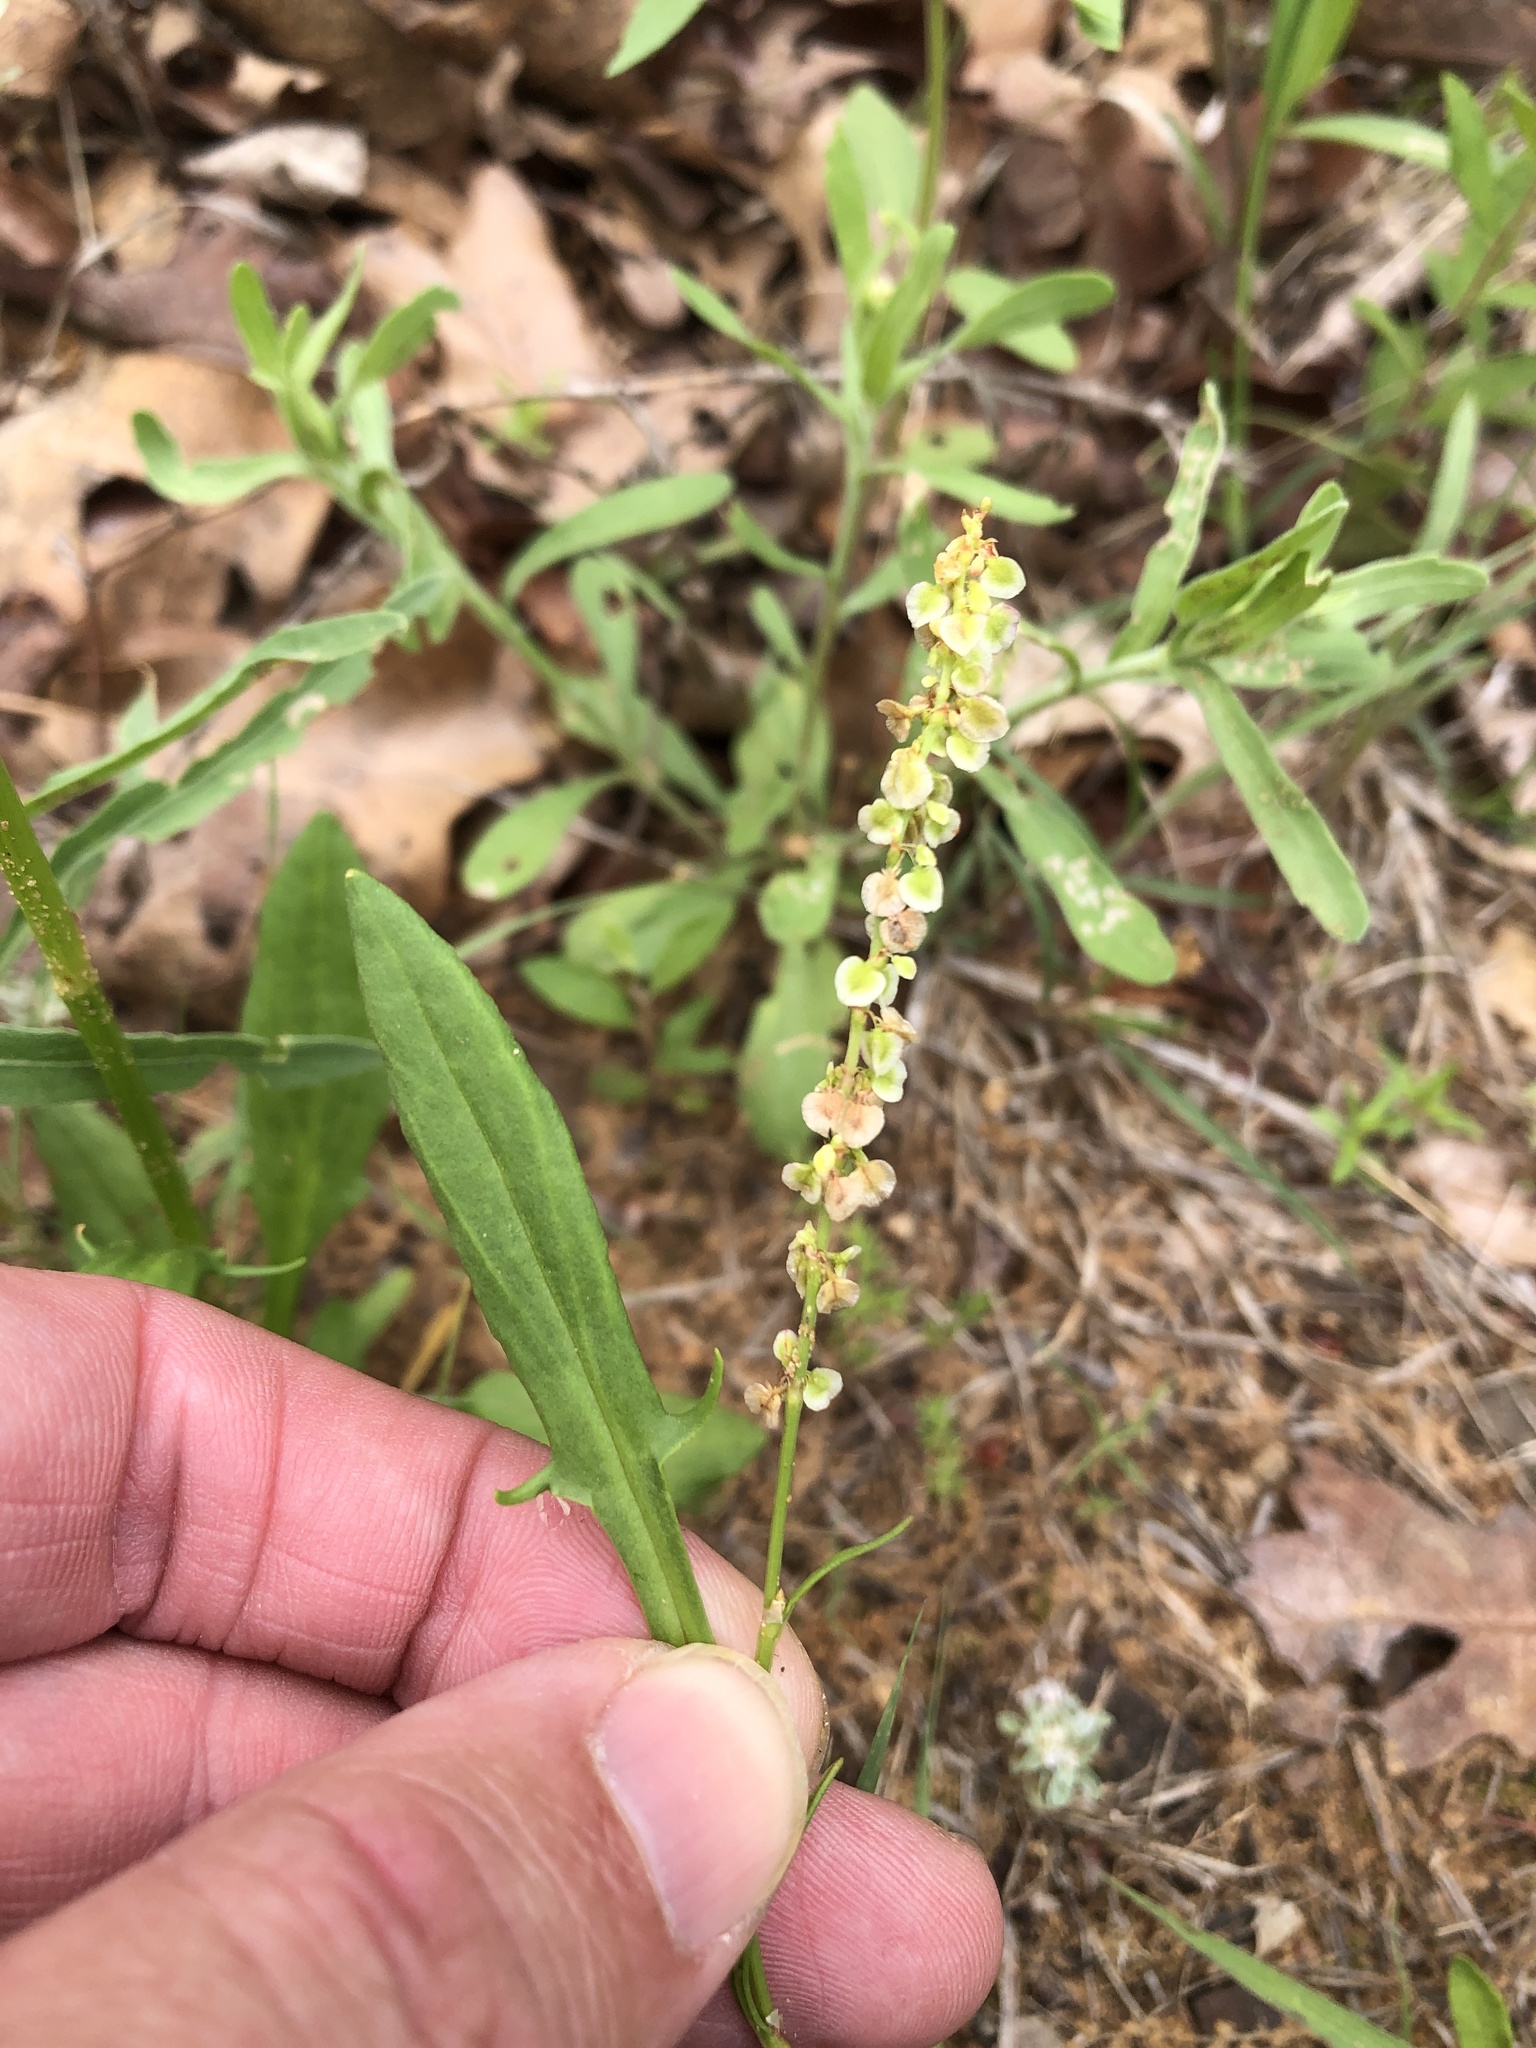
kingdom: Plantae
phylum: Tracheophyta
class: Magnoliopsida
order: Caryophyllales
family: Polygonaceae
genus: Rumex
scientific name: Rumex hastatulus
